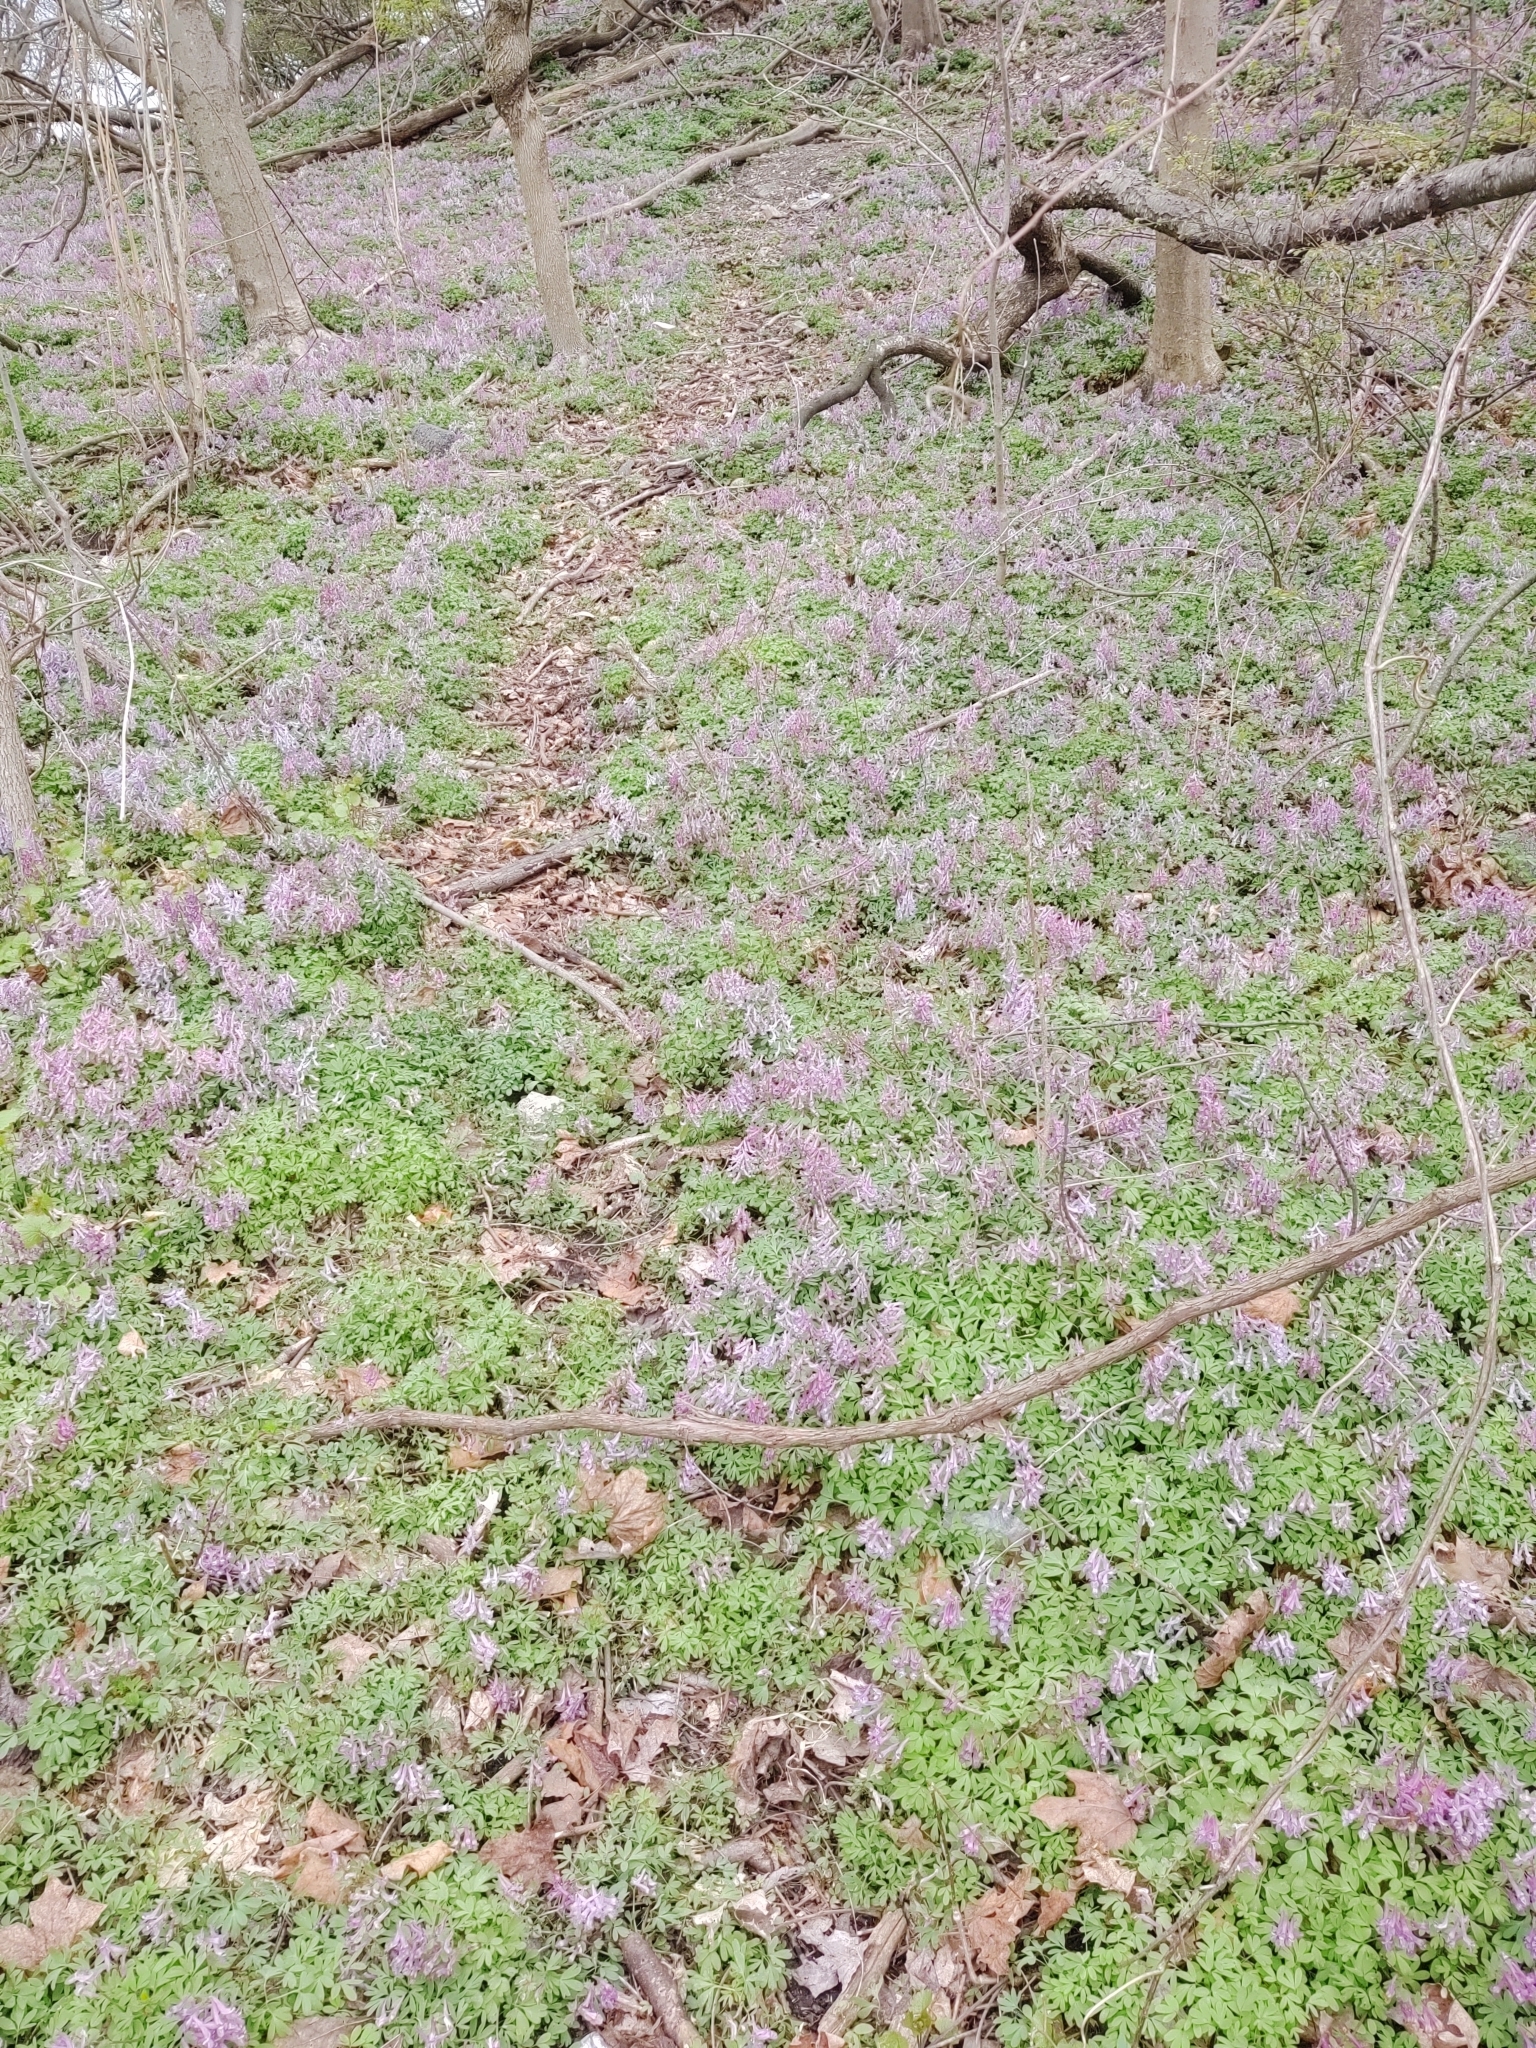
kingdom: Plantae
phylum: Tracheophyta
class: Magnoliopsida
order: Ranunculales
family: Papaveraceae
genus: Corydalis
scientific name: Corydalis solida
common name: Bird-in-a-bush
